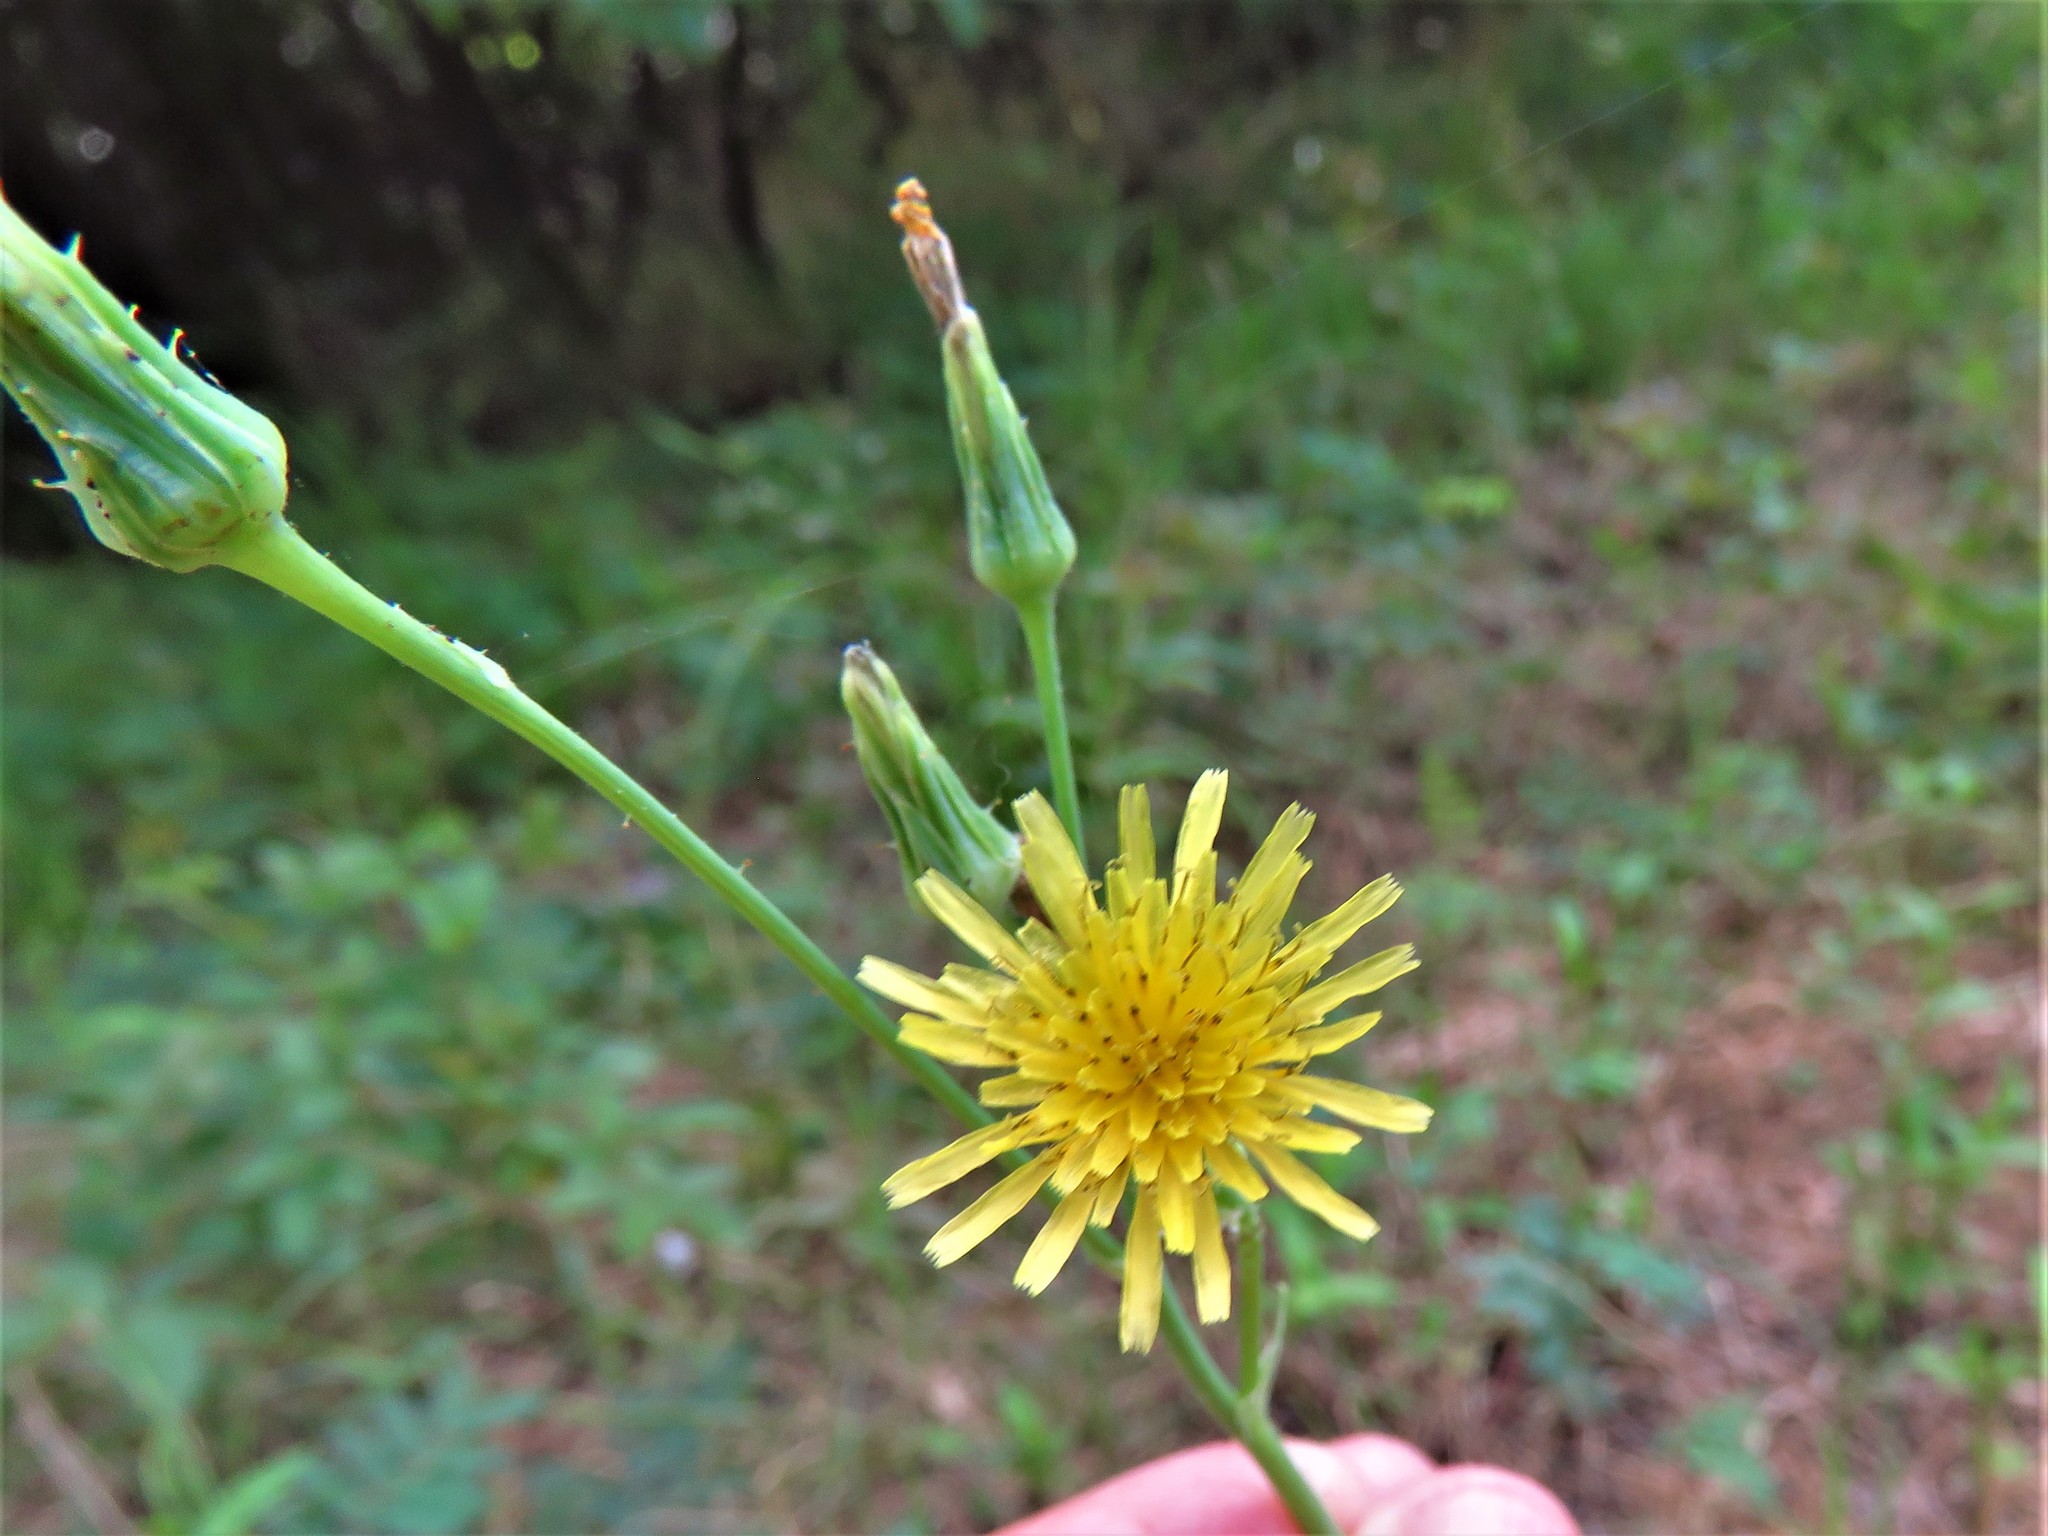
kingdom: Plantae
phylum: Tracheophyta
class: Magnoliopsida
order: Asterales
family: Asteraceae
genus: Sonchus
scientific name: Sonchus oleraceus
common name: Common sowthistle
